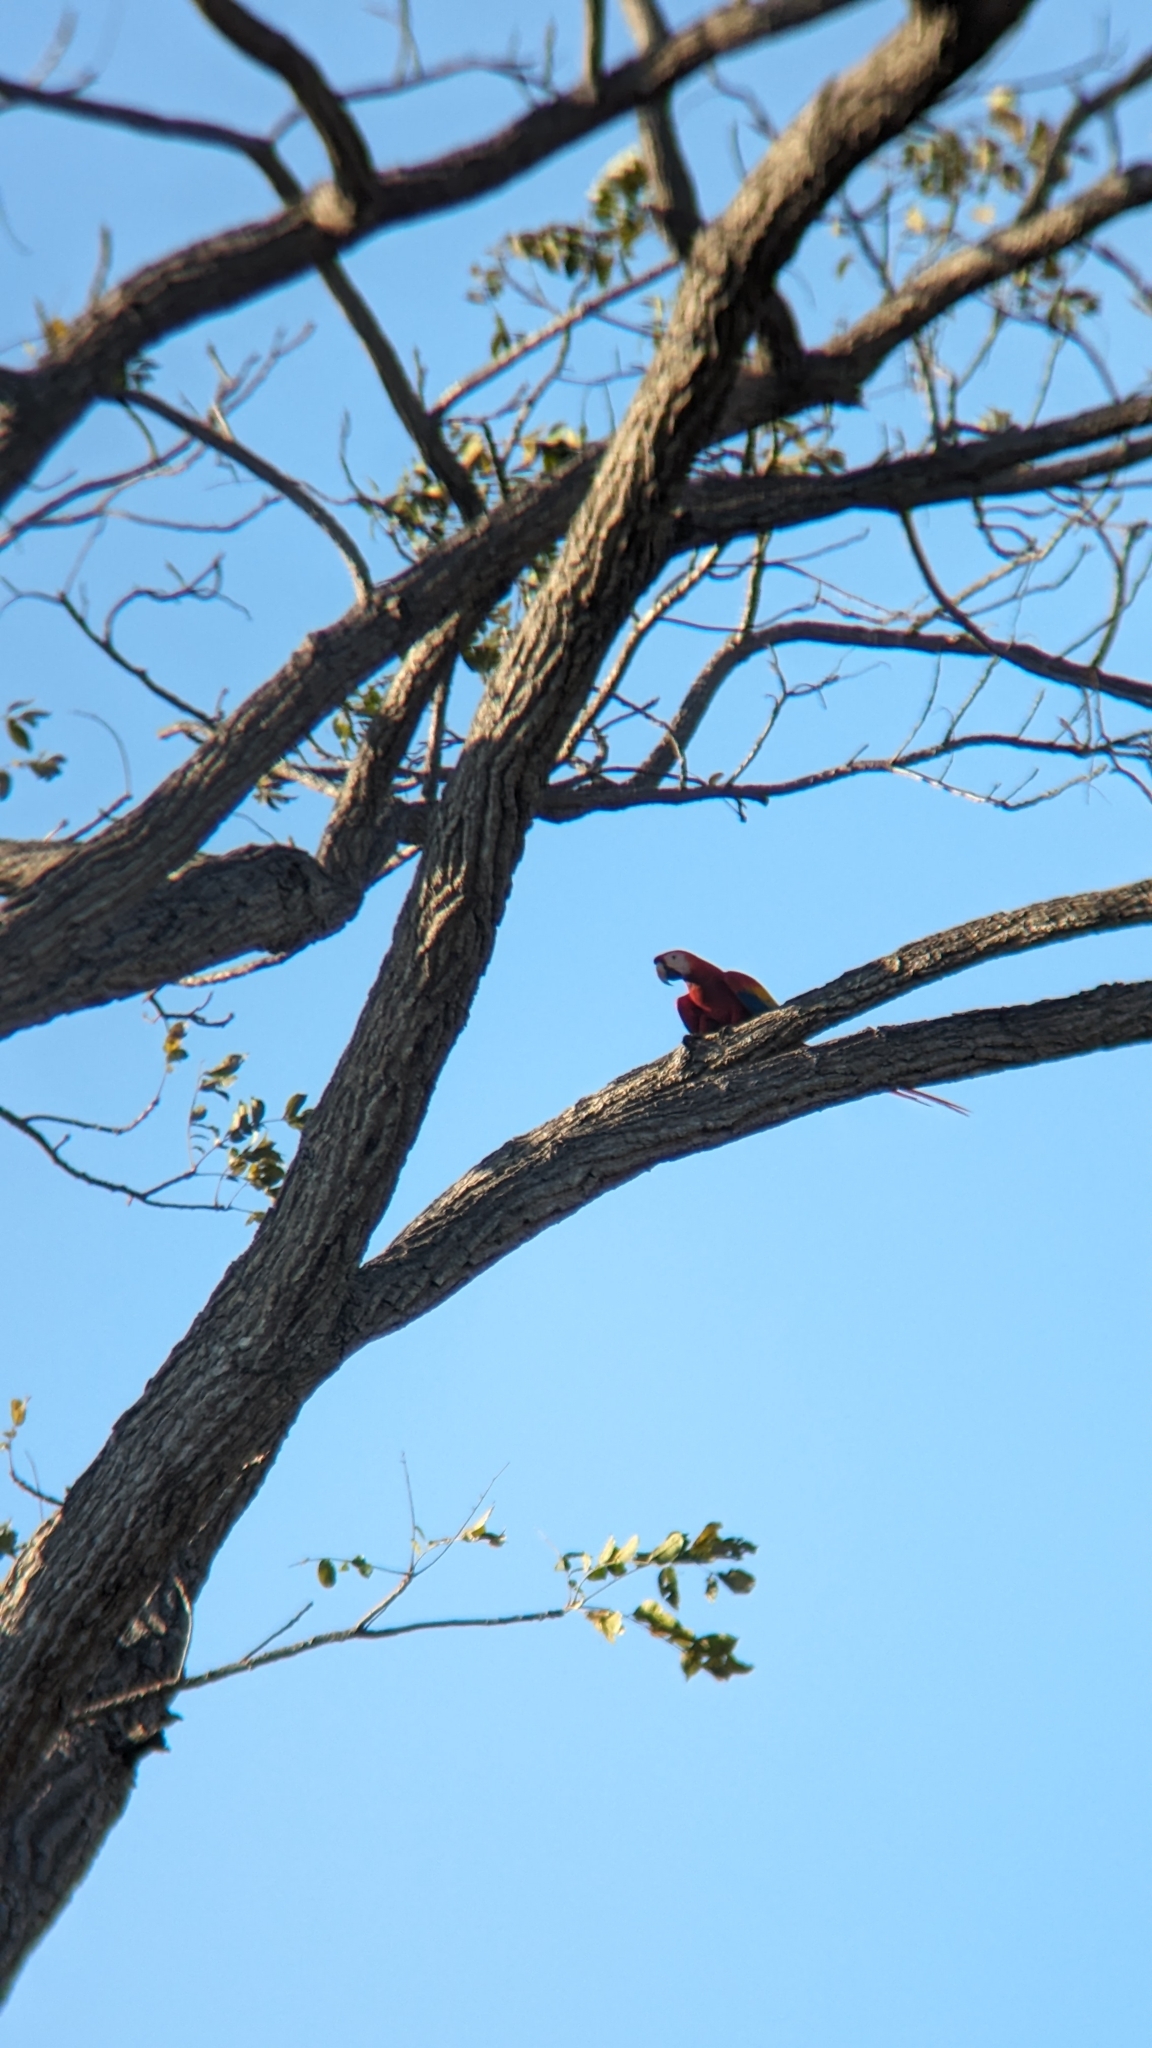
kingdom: Animalia
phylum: Chordata
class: Aves
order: Psittaciformes
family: Psittacidae
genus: Ara
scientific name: Ara macao
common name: Scarlet macaw
